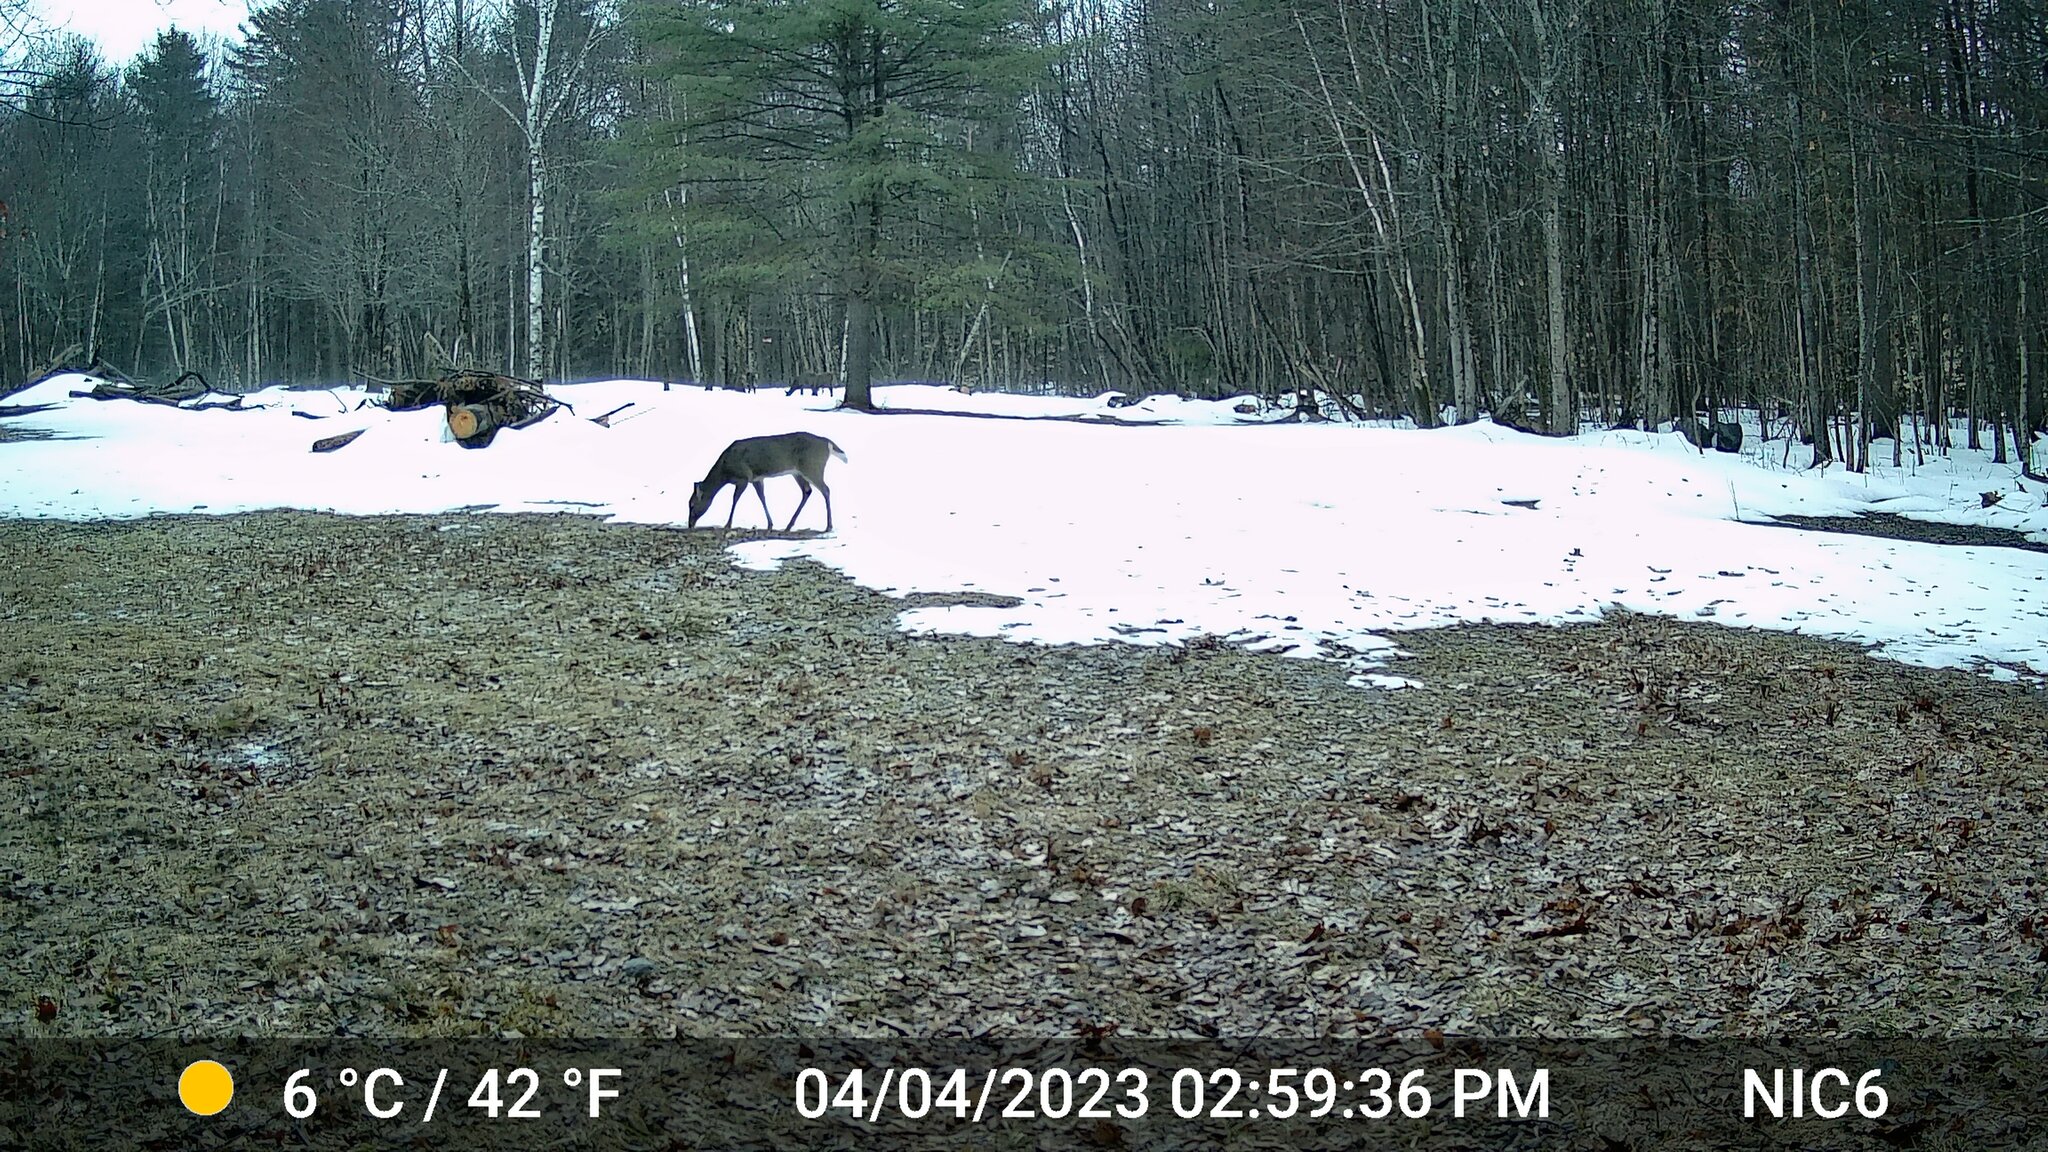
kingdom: Animalia
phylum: Chordata
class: Mammalia
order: Artiodactyla
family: Cervidae
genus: Odocoileus
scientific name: Odocoileus virginianus
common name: White-tailed deer
